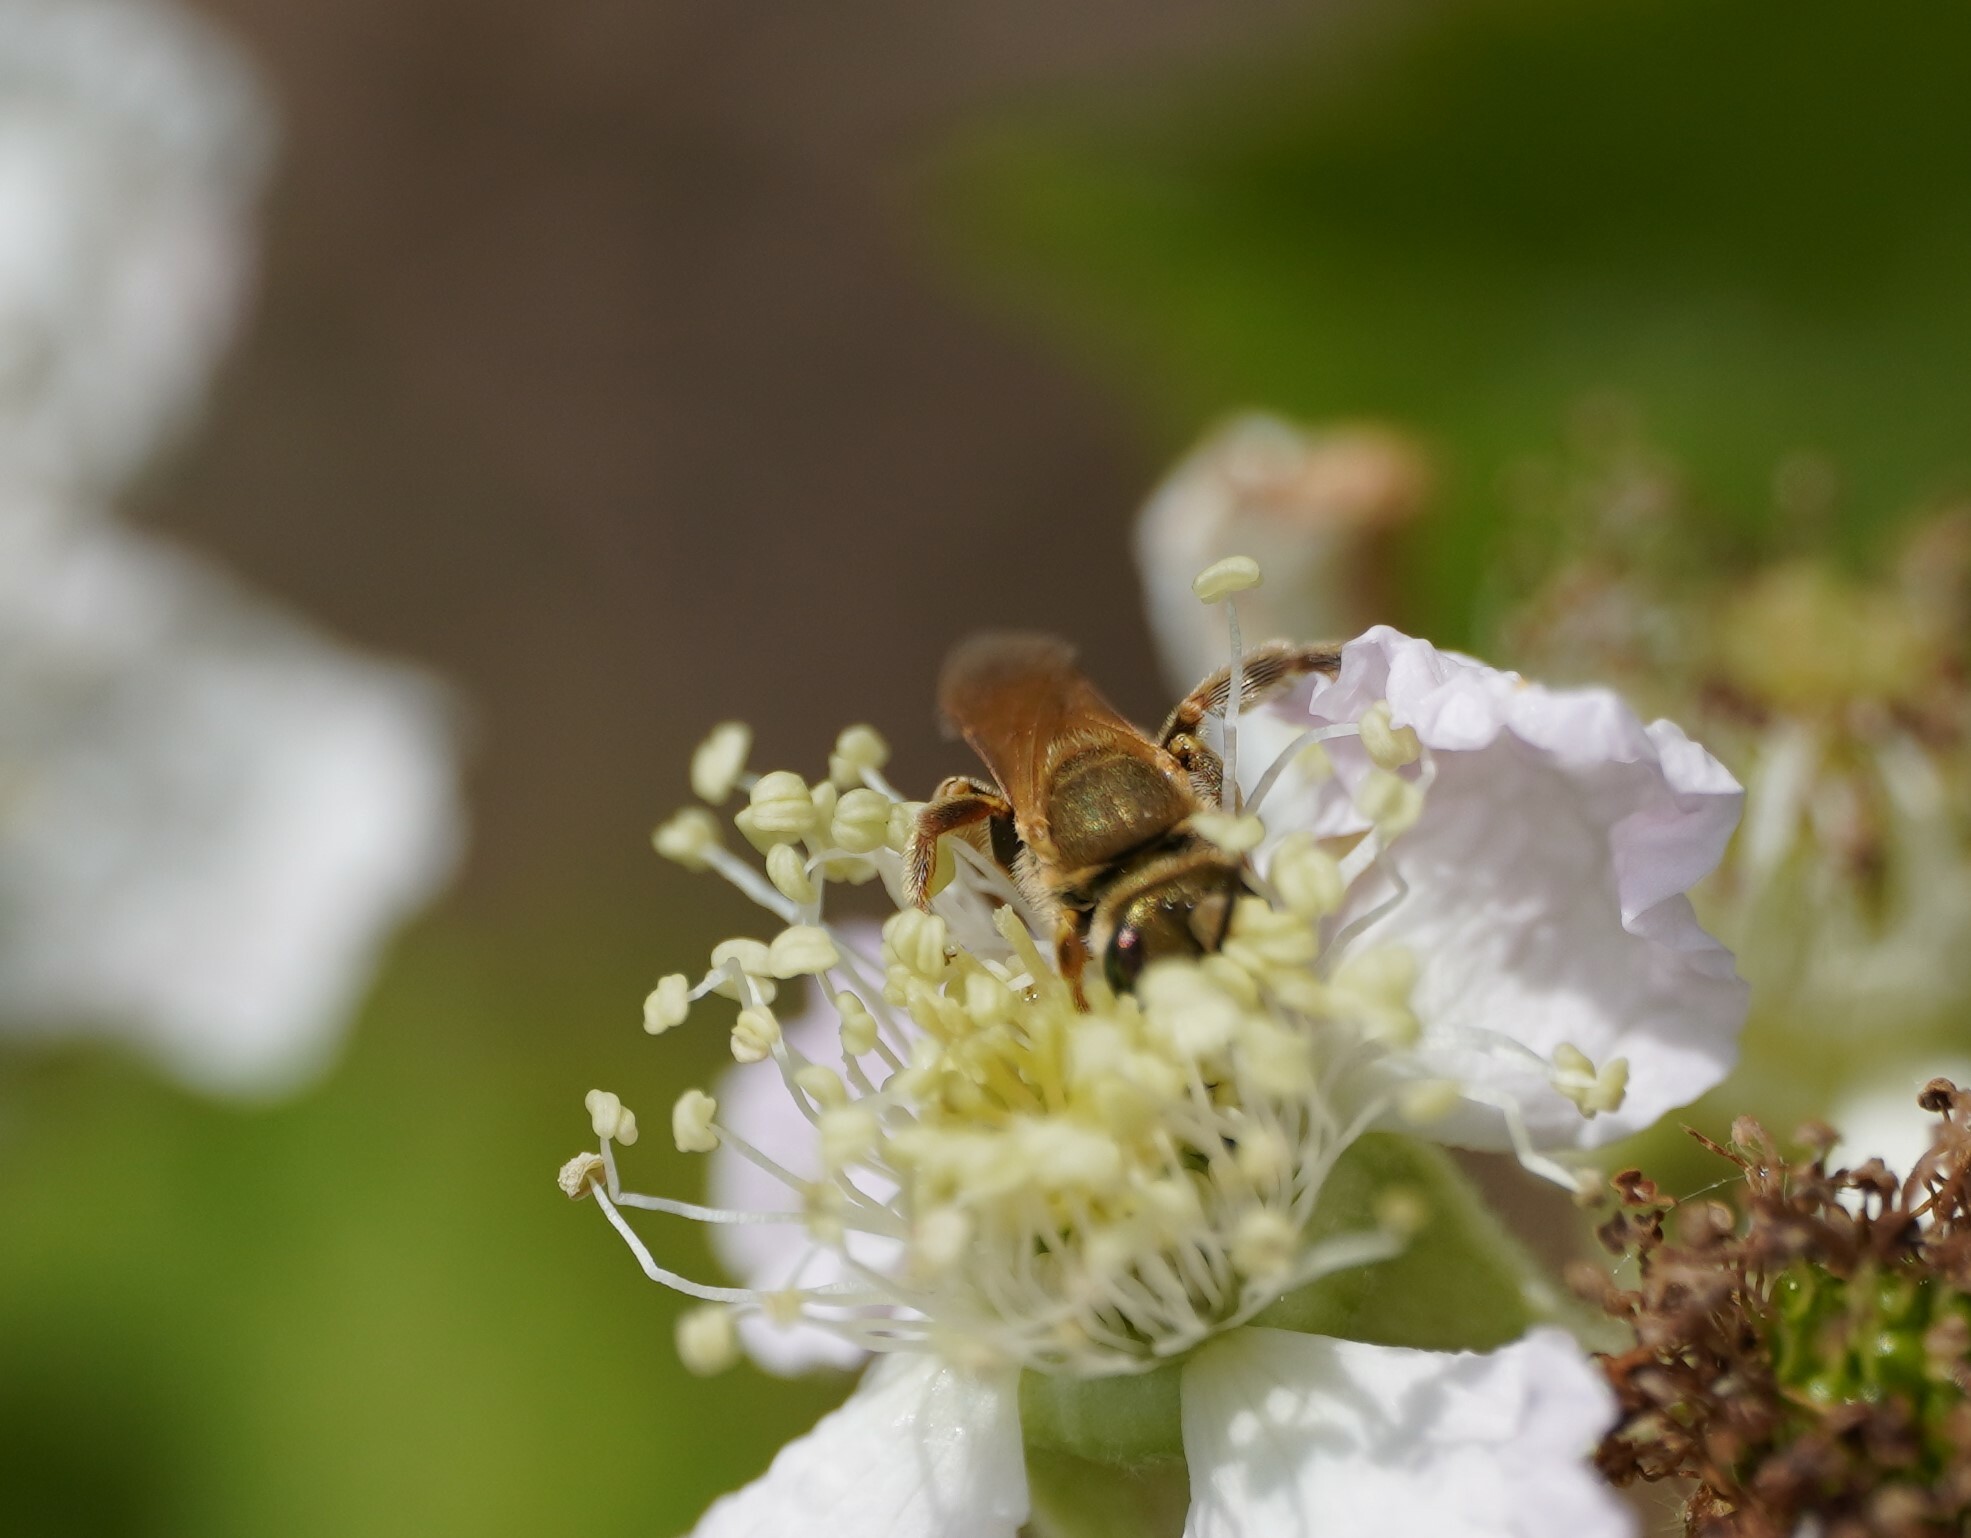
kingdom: Animalia
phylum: Arthropoda
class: Insecta
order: Hymenoptera
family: Halictidae
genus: Halictus
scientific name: Halictus subauratus
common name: Golden furrow bee
